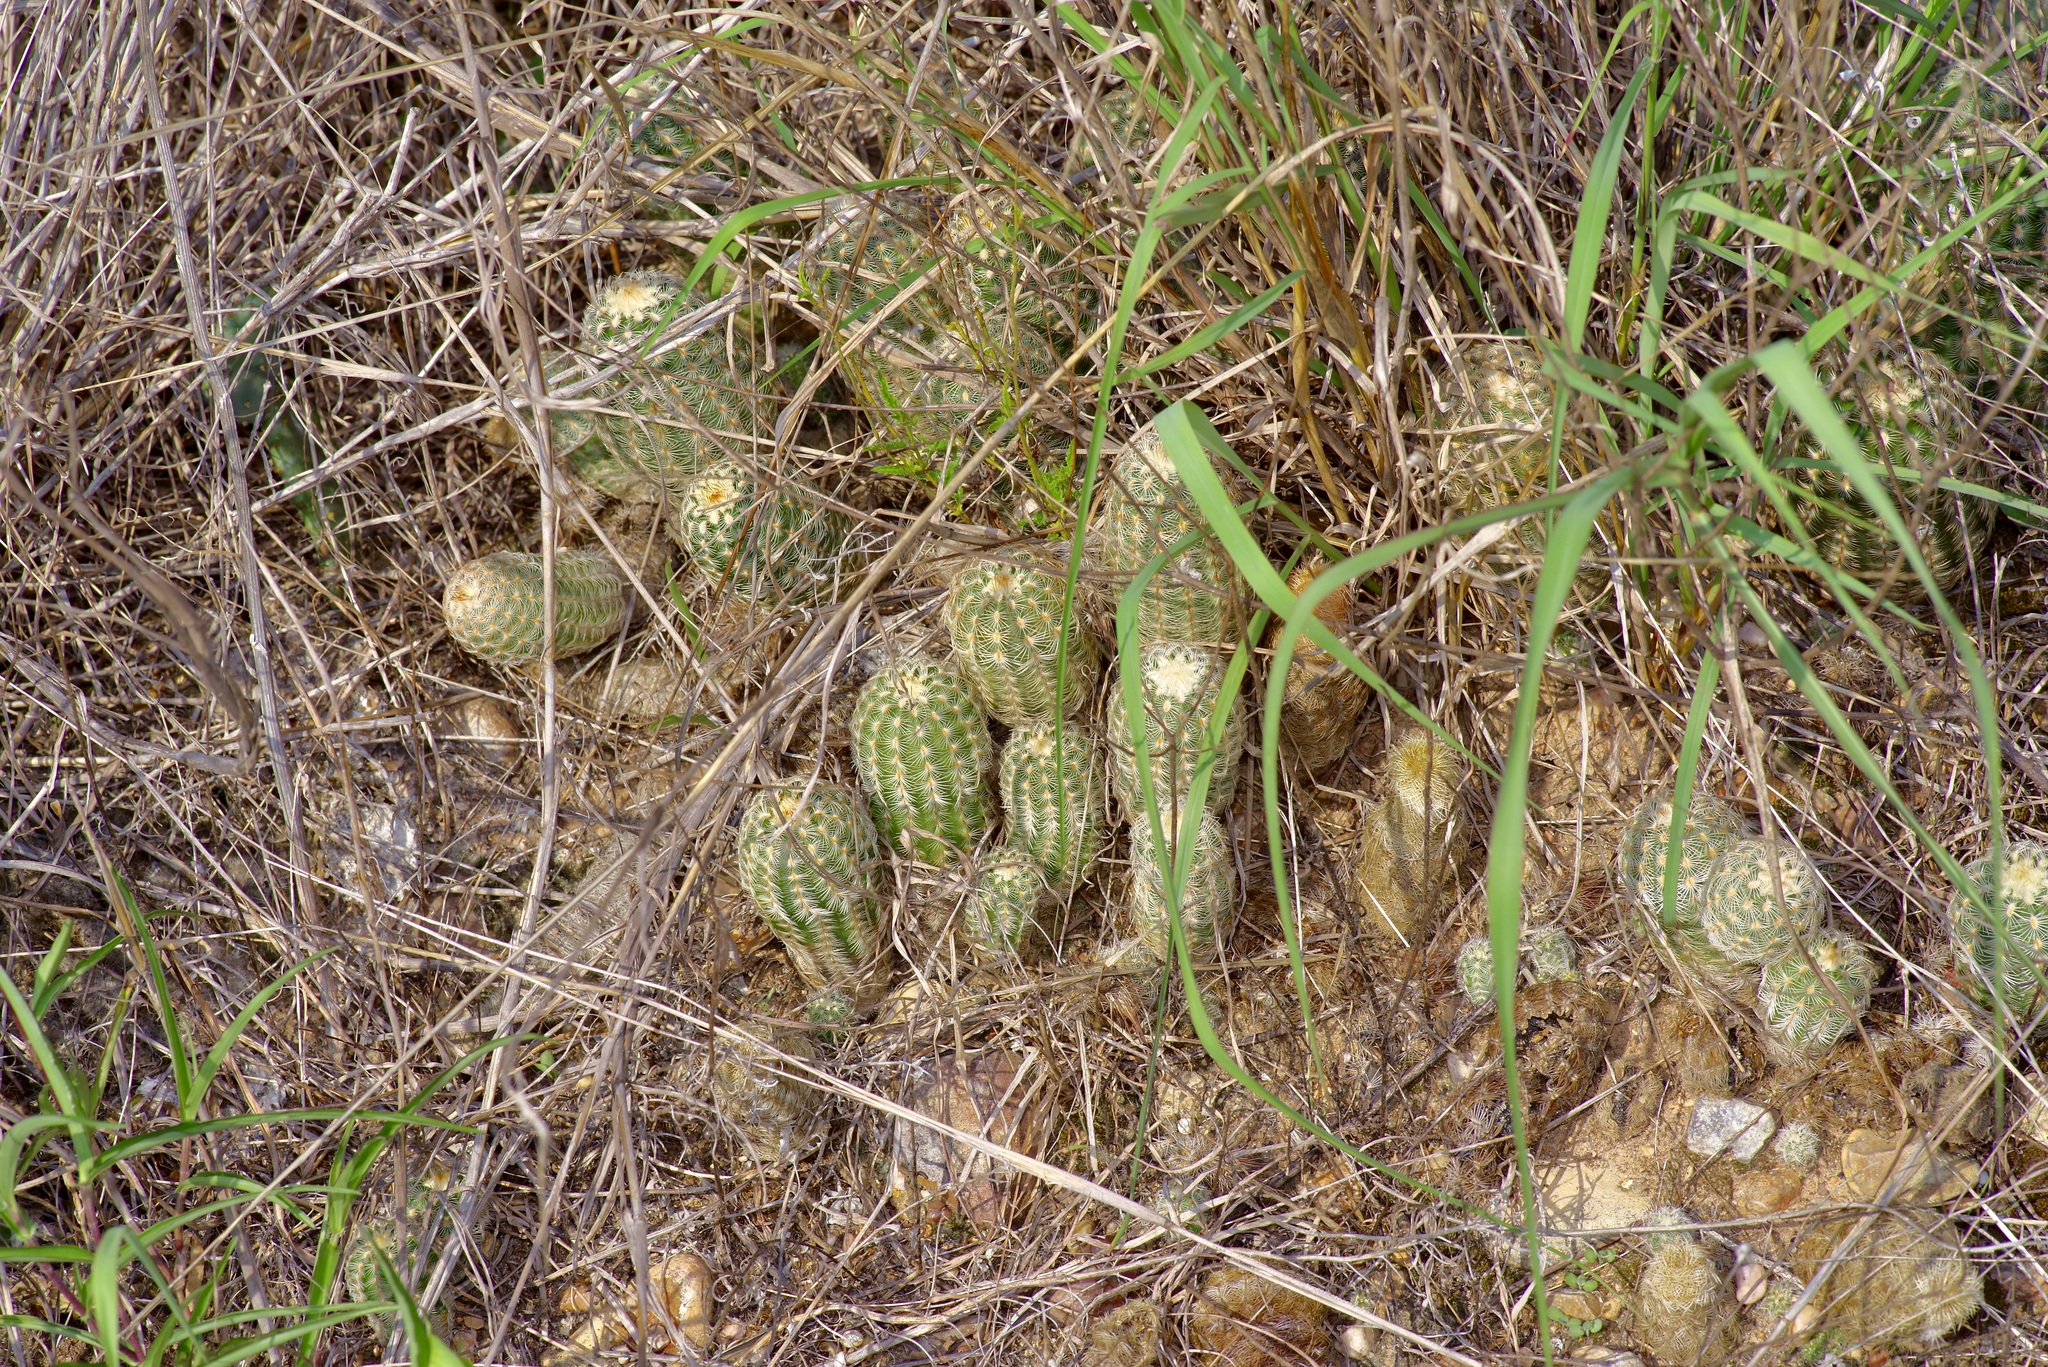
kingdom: Plantae
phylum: Tracheophyta
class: Magnoliopsida
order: Caryophyllales
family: Cactaceae
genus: Echinocereus
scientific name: Echinocereus reichenbachii
